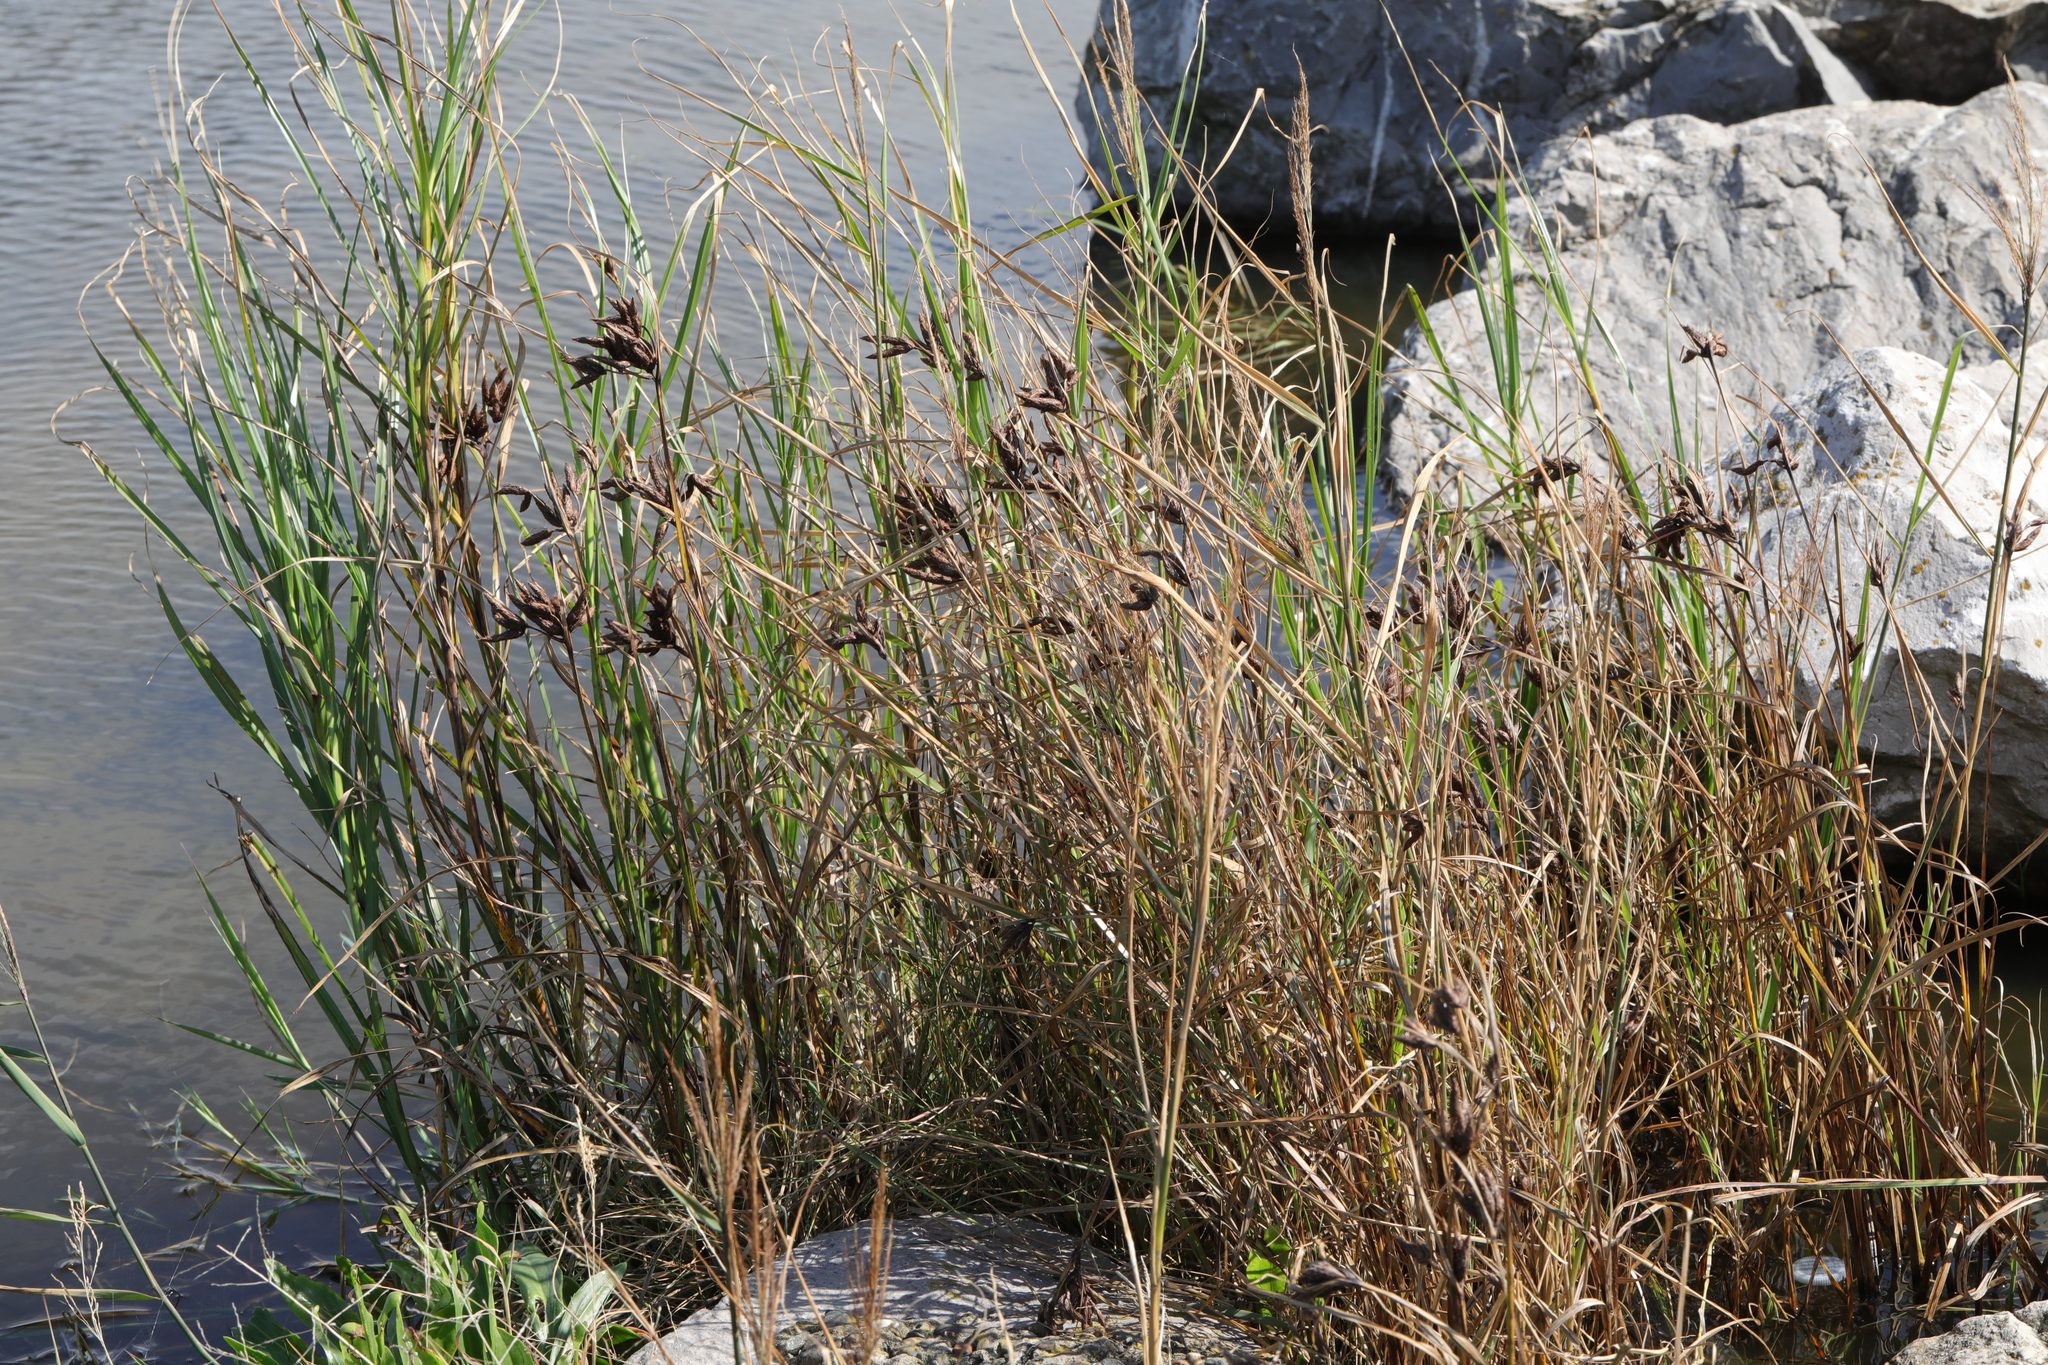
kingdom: Plantae
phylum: Tracheophyta
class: Liliopsida
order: Poales
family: Cyperaceae
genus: Bolboschoenus
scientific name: Bolboschoenus maritimus
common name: Sea club-rush
